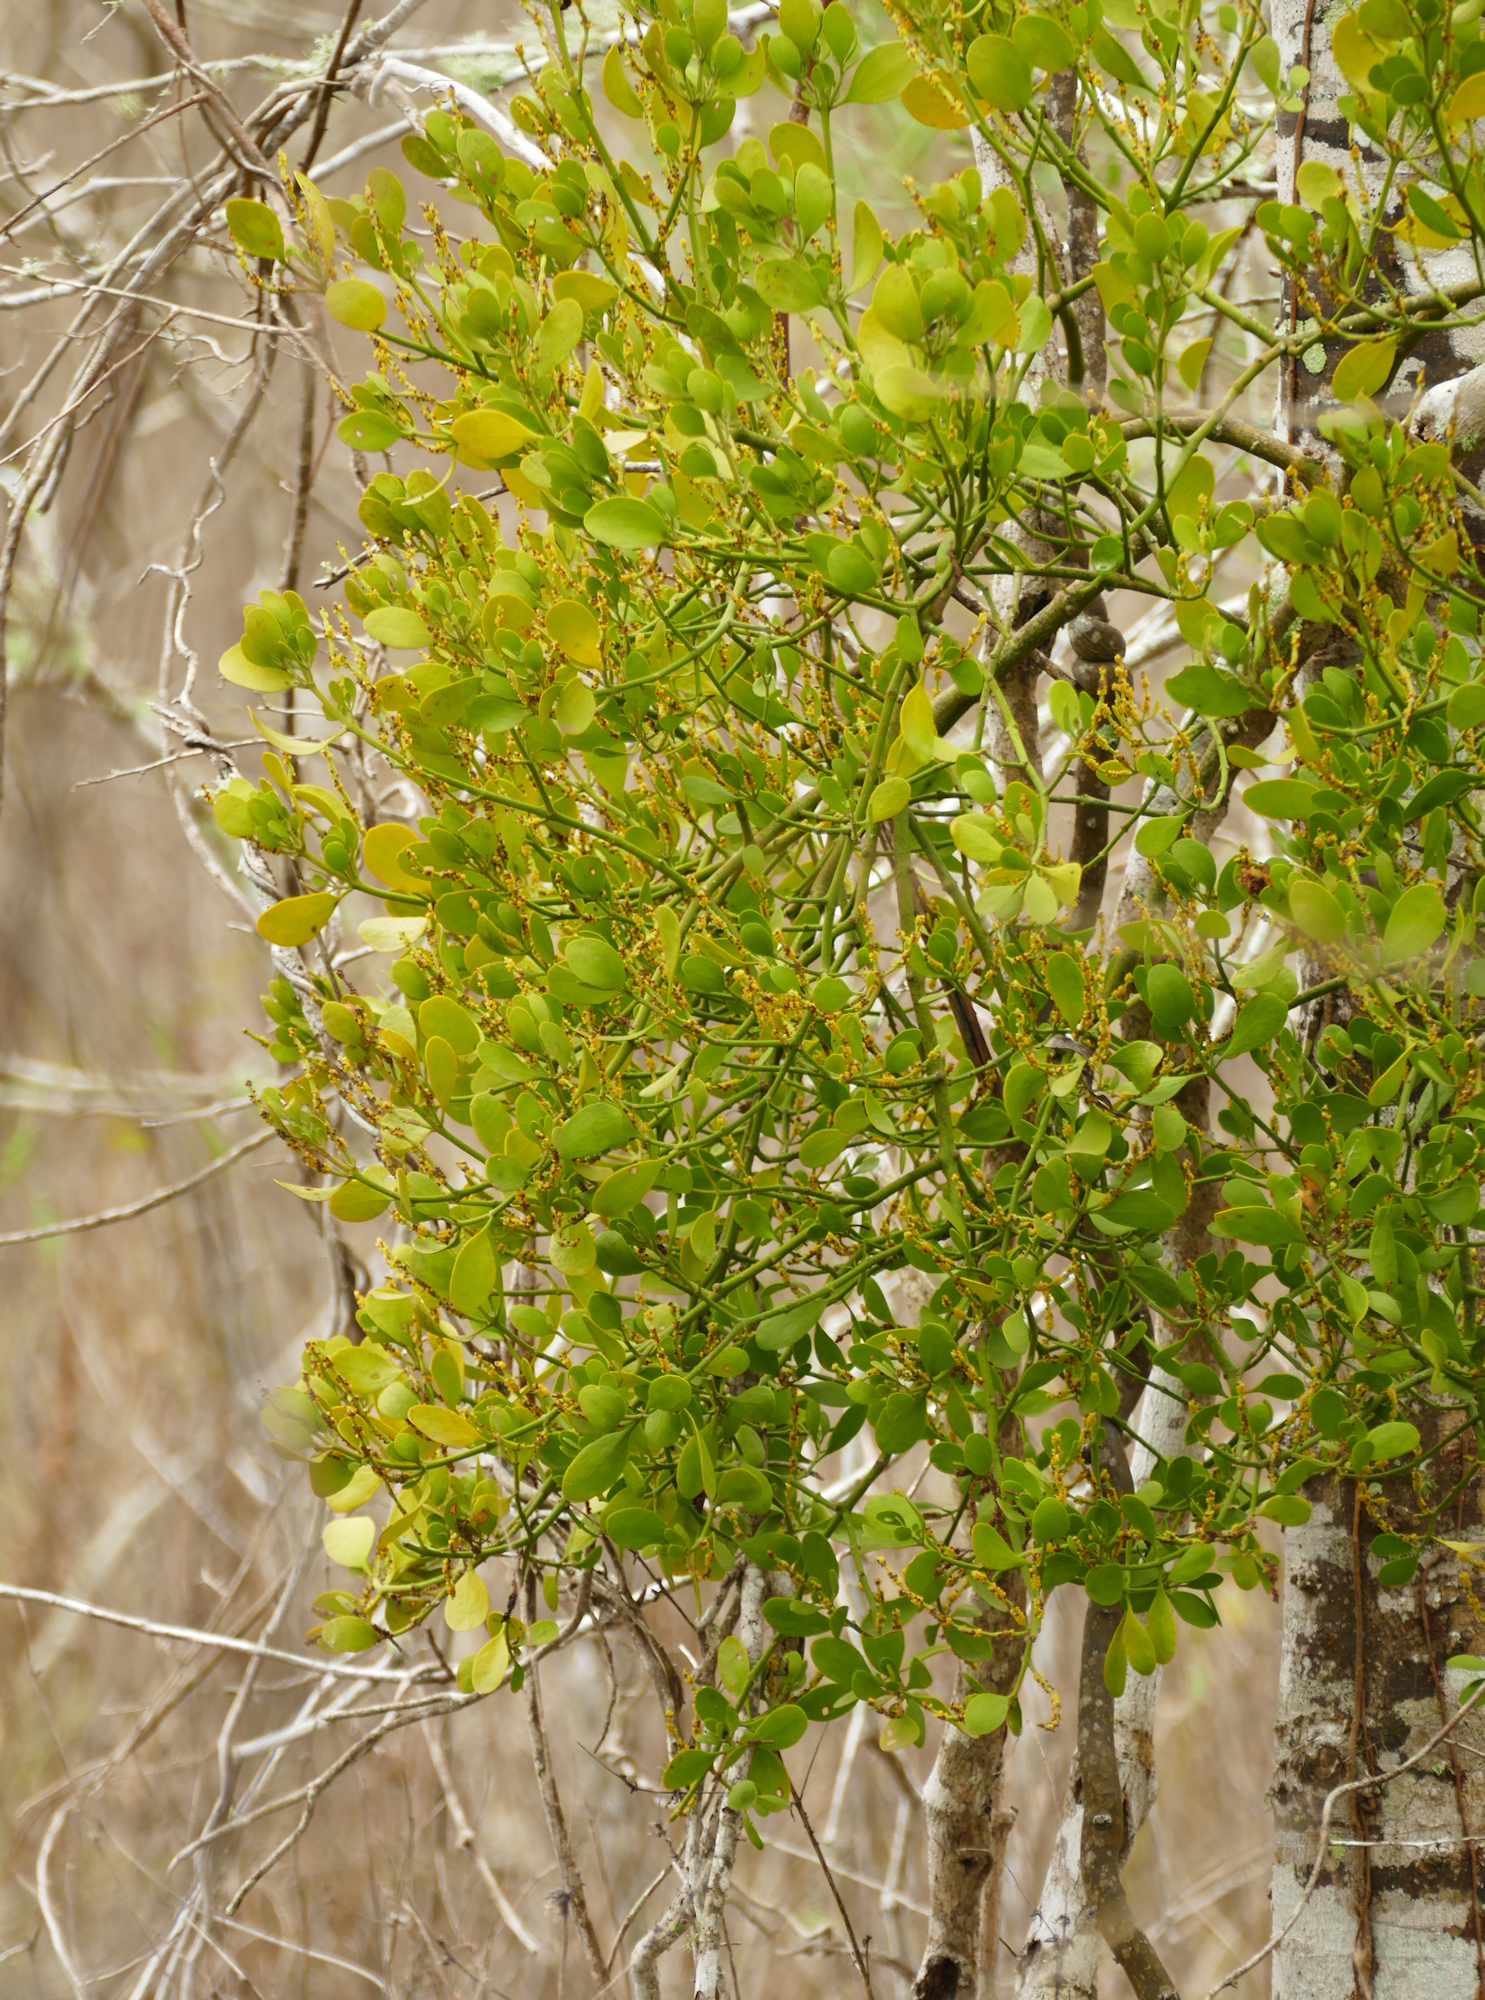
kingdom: Plantae
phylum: Tracheophyta
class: Magnoliopsida
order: Santalales
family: Viscaceae
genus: Phoradendron
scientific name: Phoradendron leucarpum
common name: Pacific mistletoe
